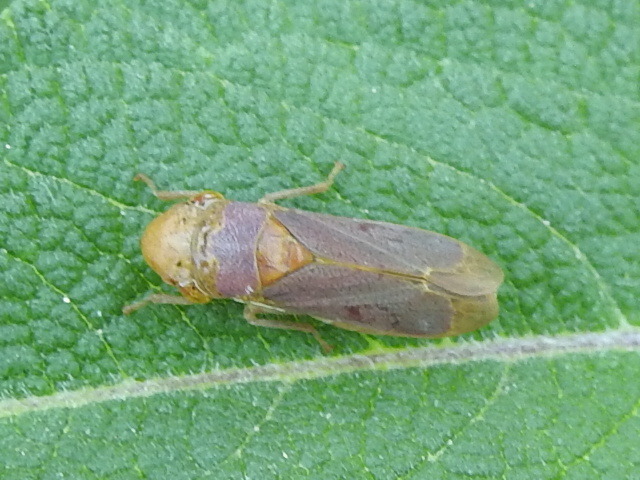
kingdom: Animalia
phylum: Arthropoda
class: Insecta
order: Hemiptera
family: Cicadellidae
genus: Oncometopia
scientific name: Oncometopia hamiltoni
